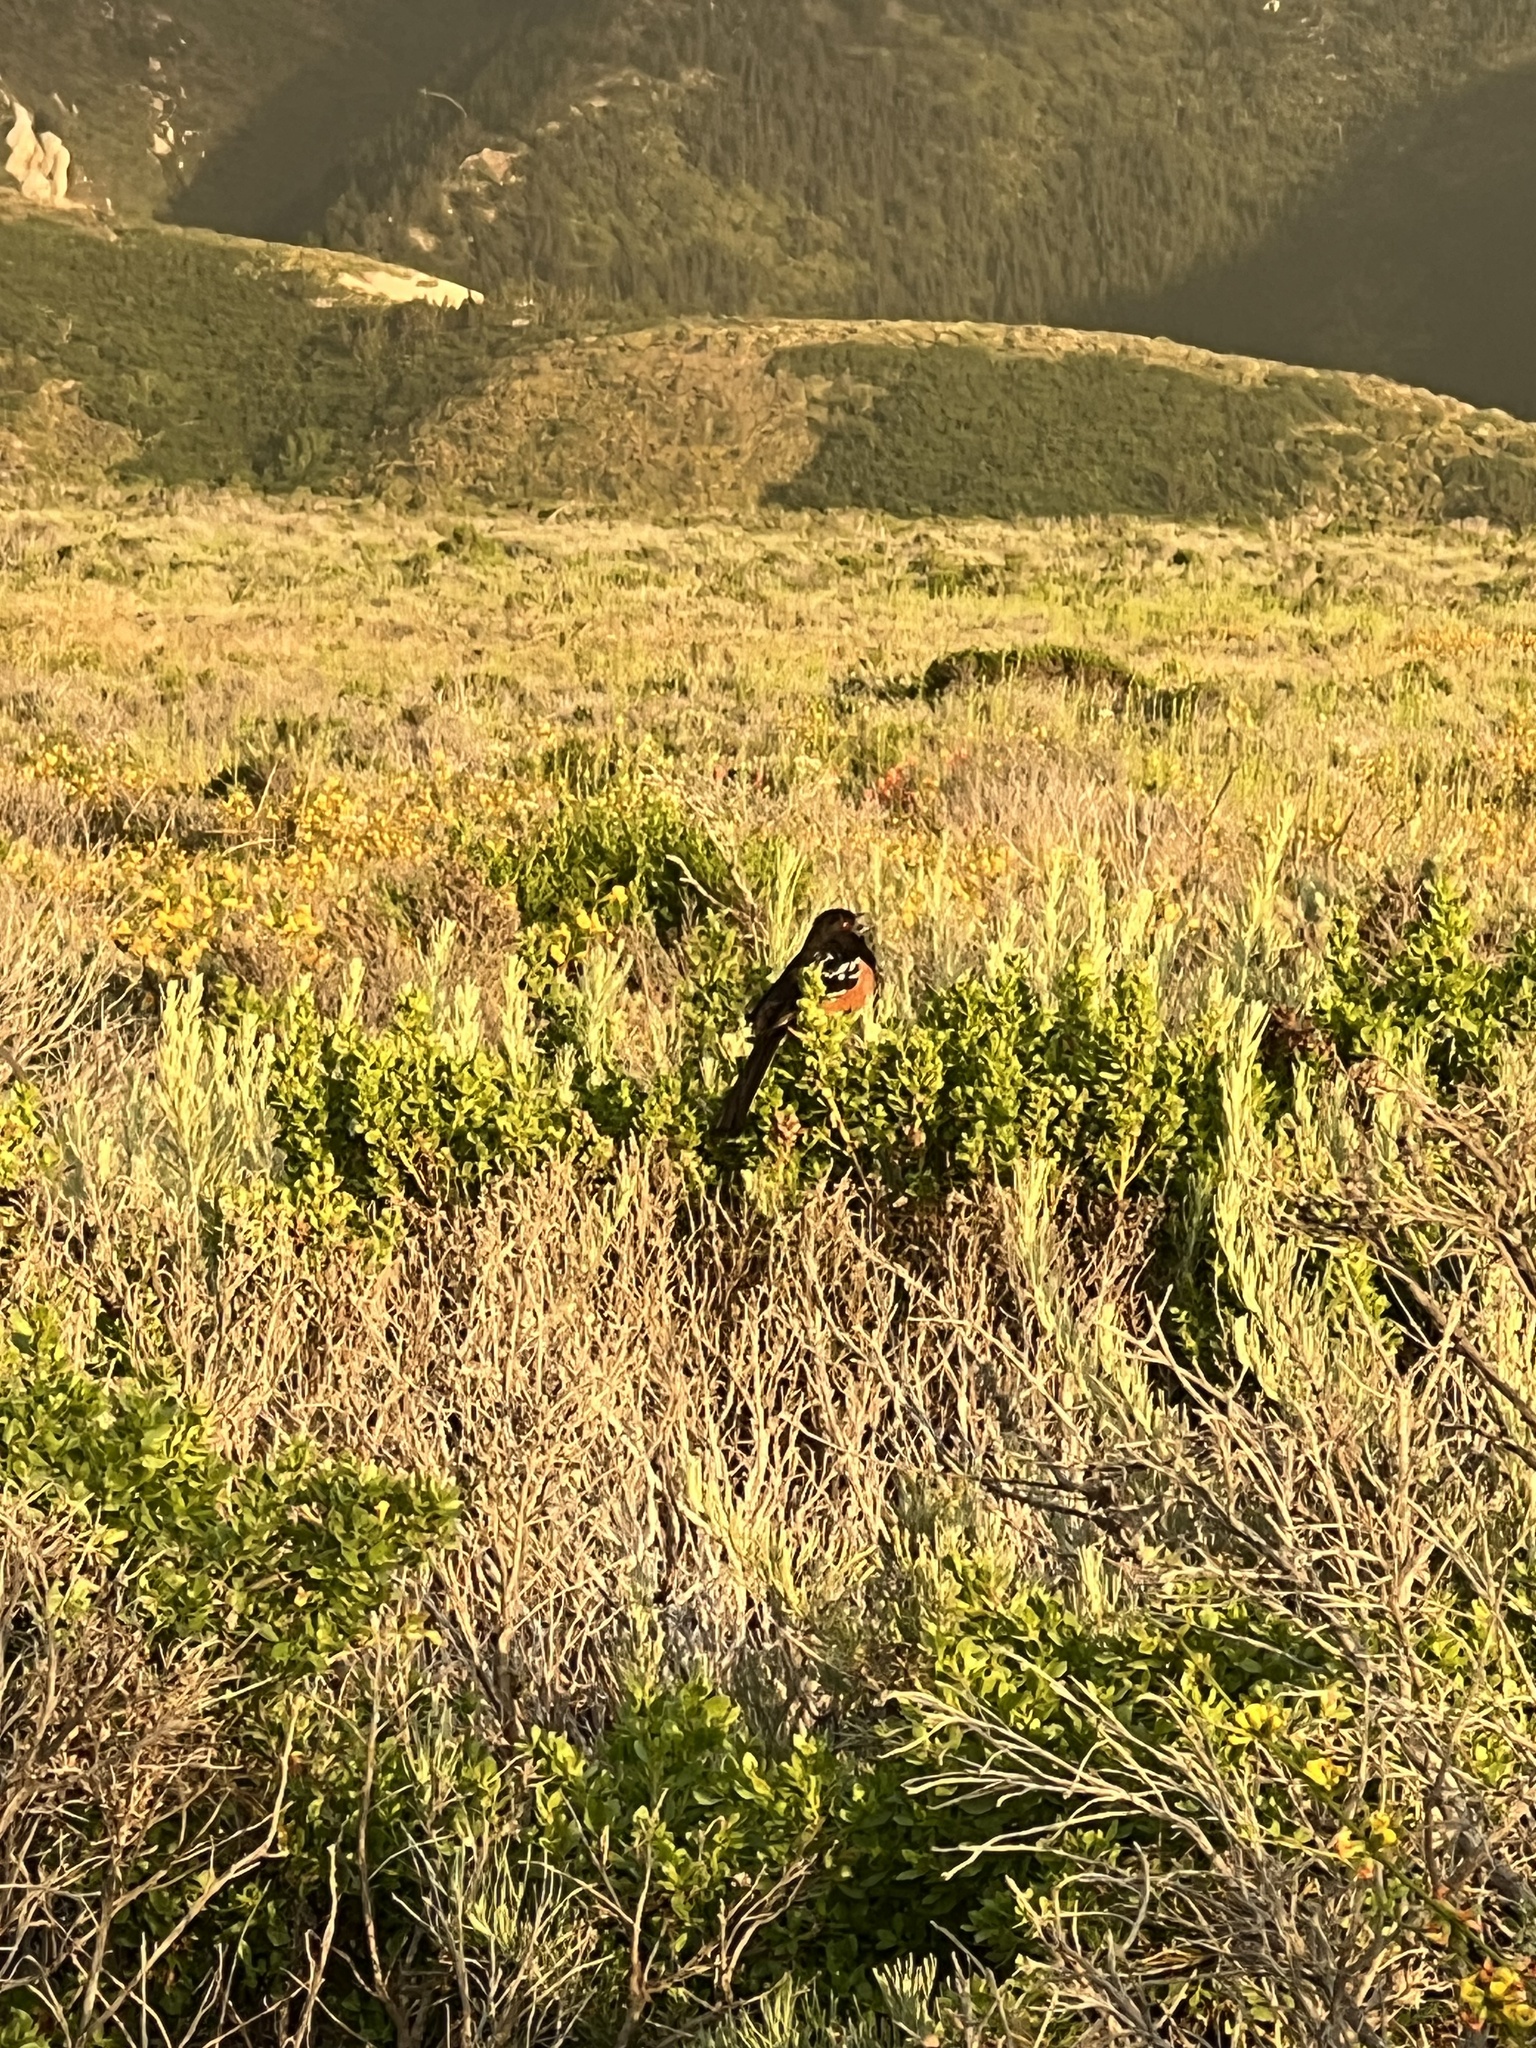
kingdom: Animalia
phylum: Chordata
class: Aves
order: Passeriformes
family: Passerellidae
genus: Pipilo
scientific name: Pipilo maculatus
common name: Spotted towhee
